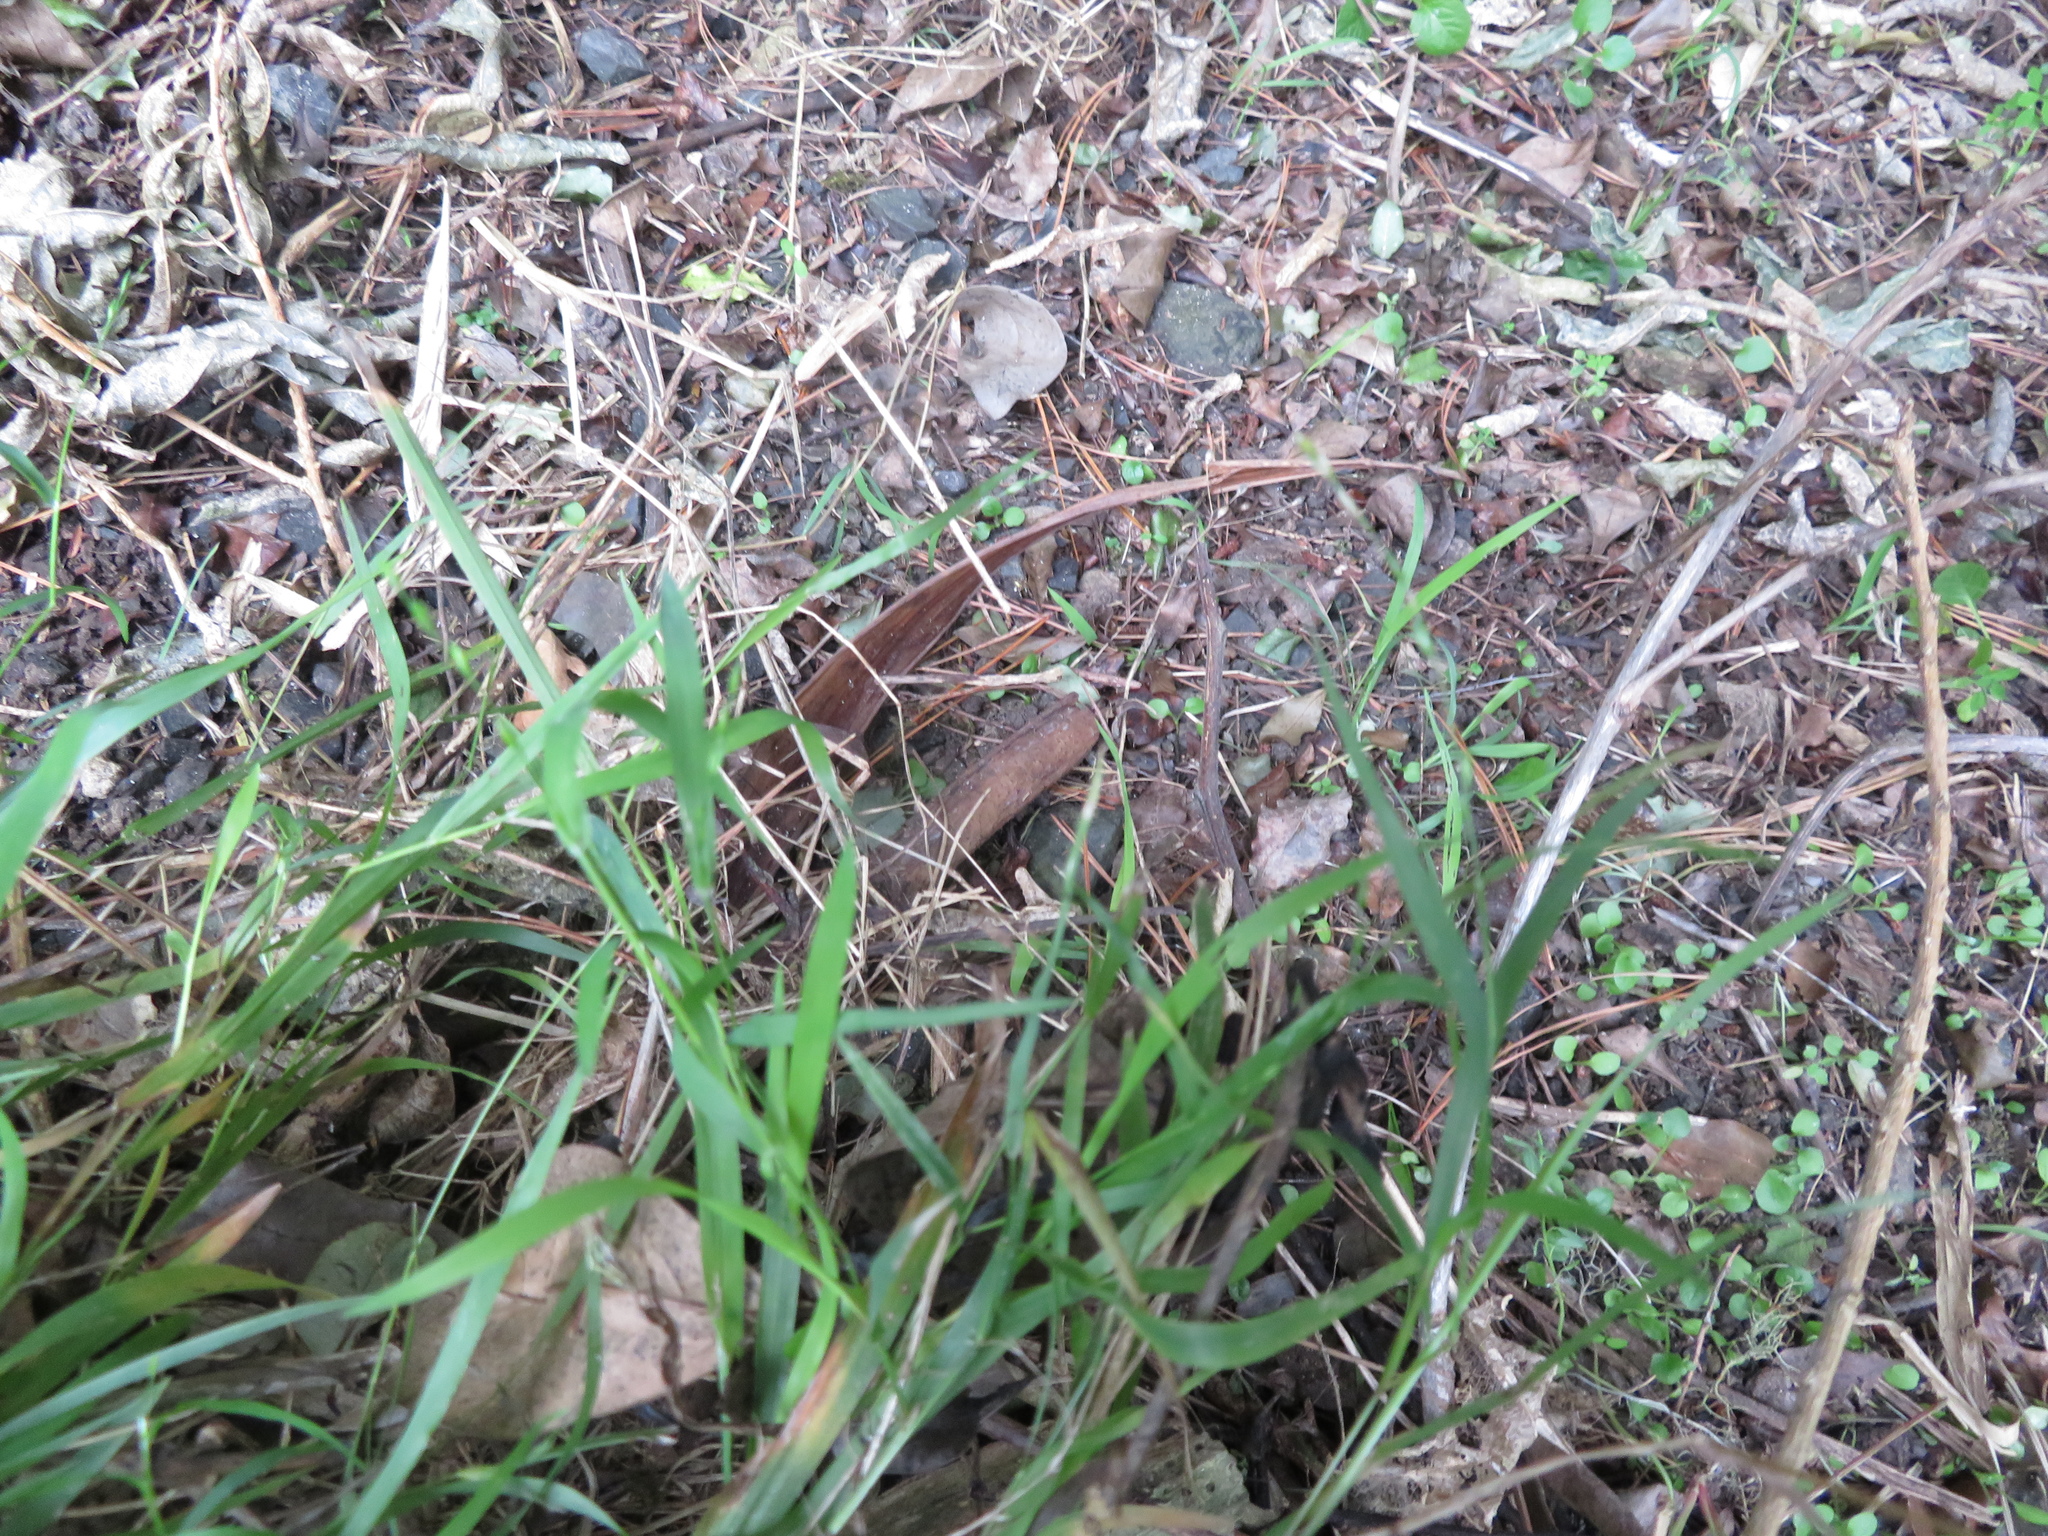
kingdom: Plantae
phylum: Tracheophyta
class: Liliopsida
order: Poales
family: Poaceae
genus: Ehrharta
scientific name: Ehrharta erecta
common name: Panic veldtgrass
